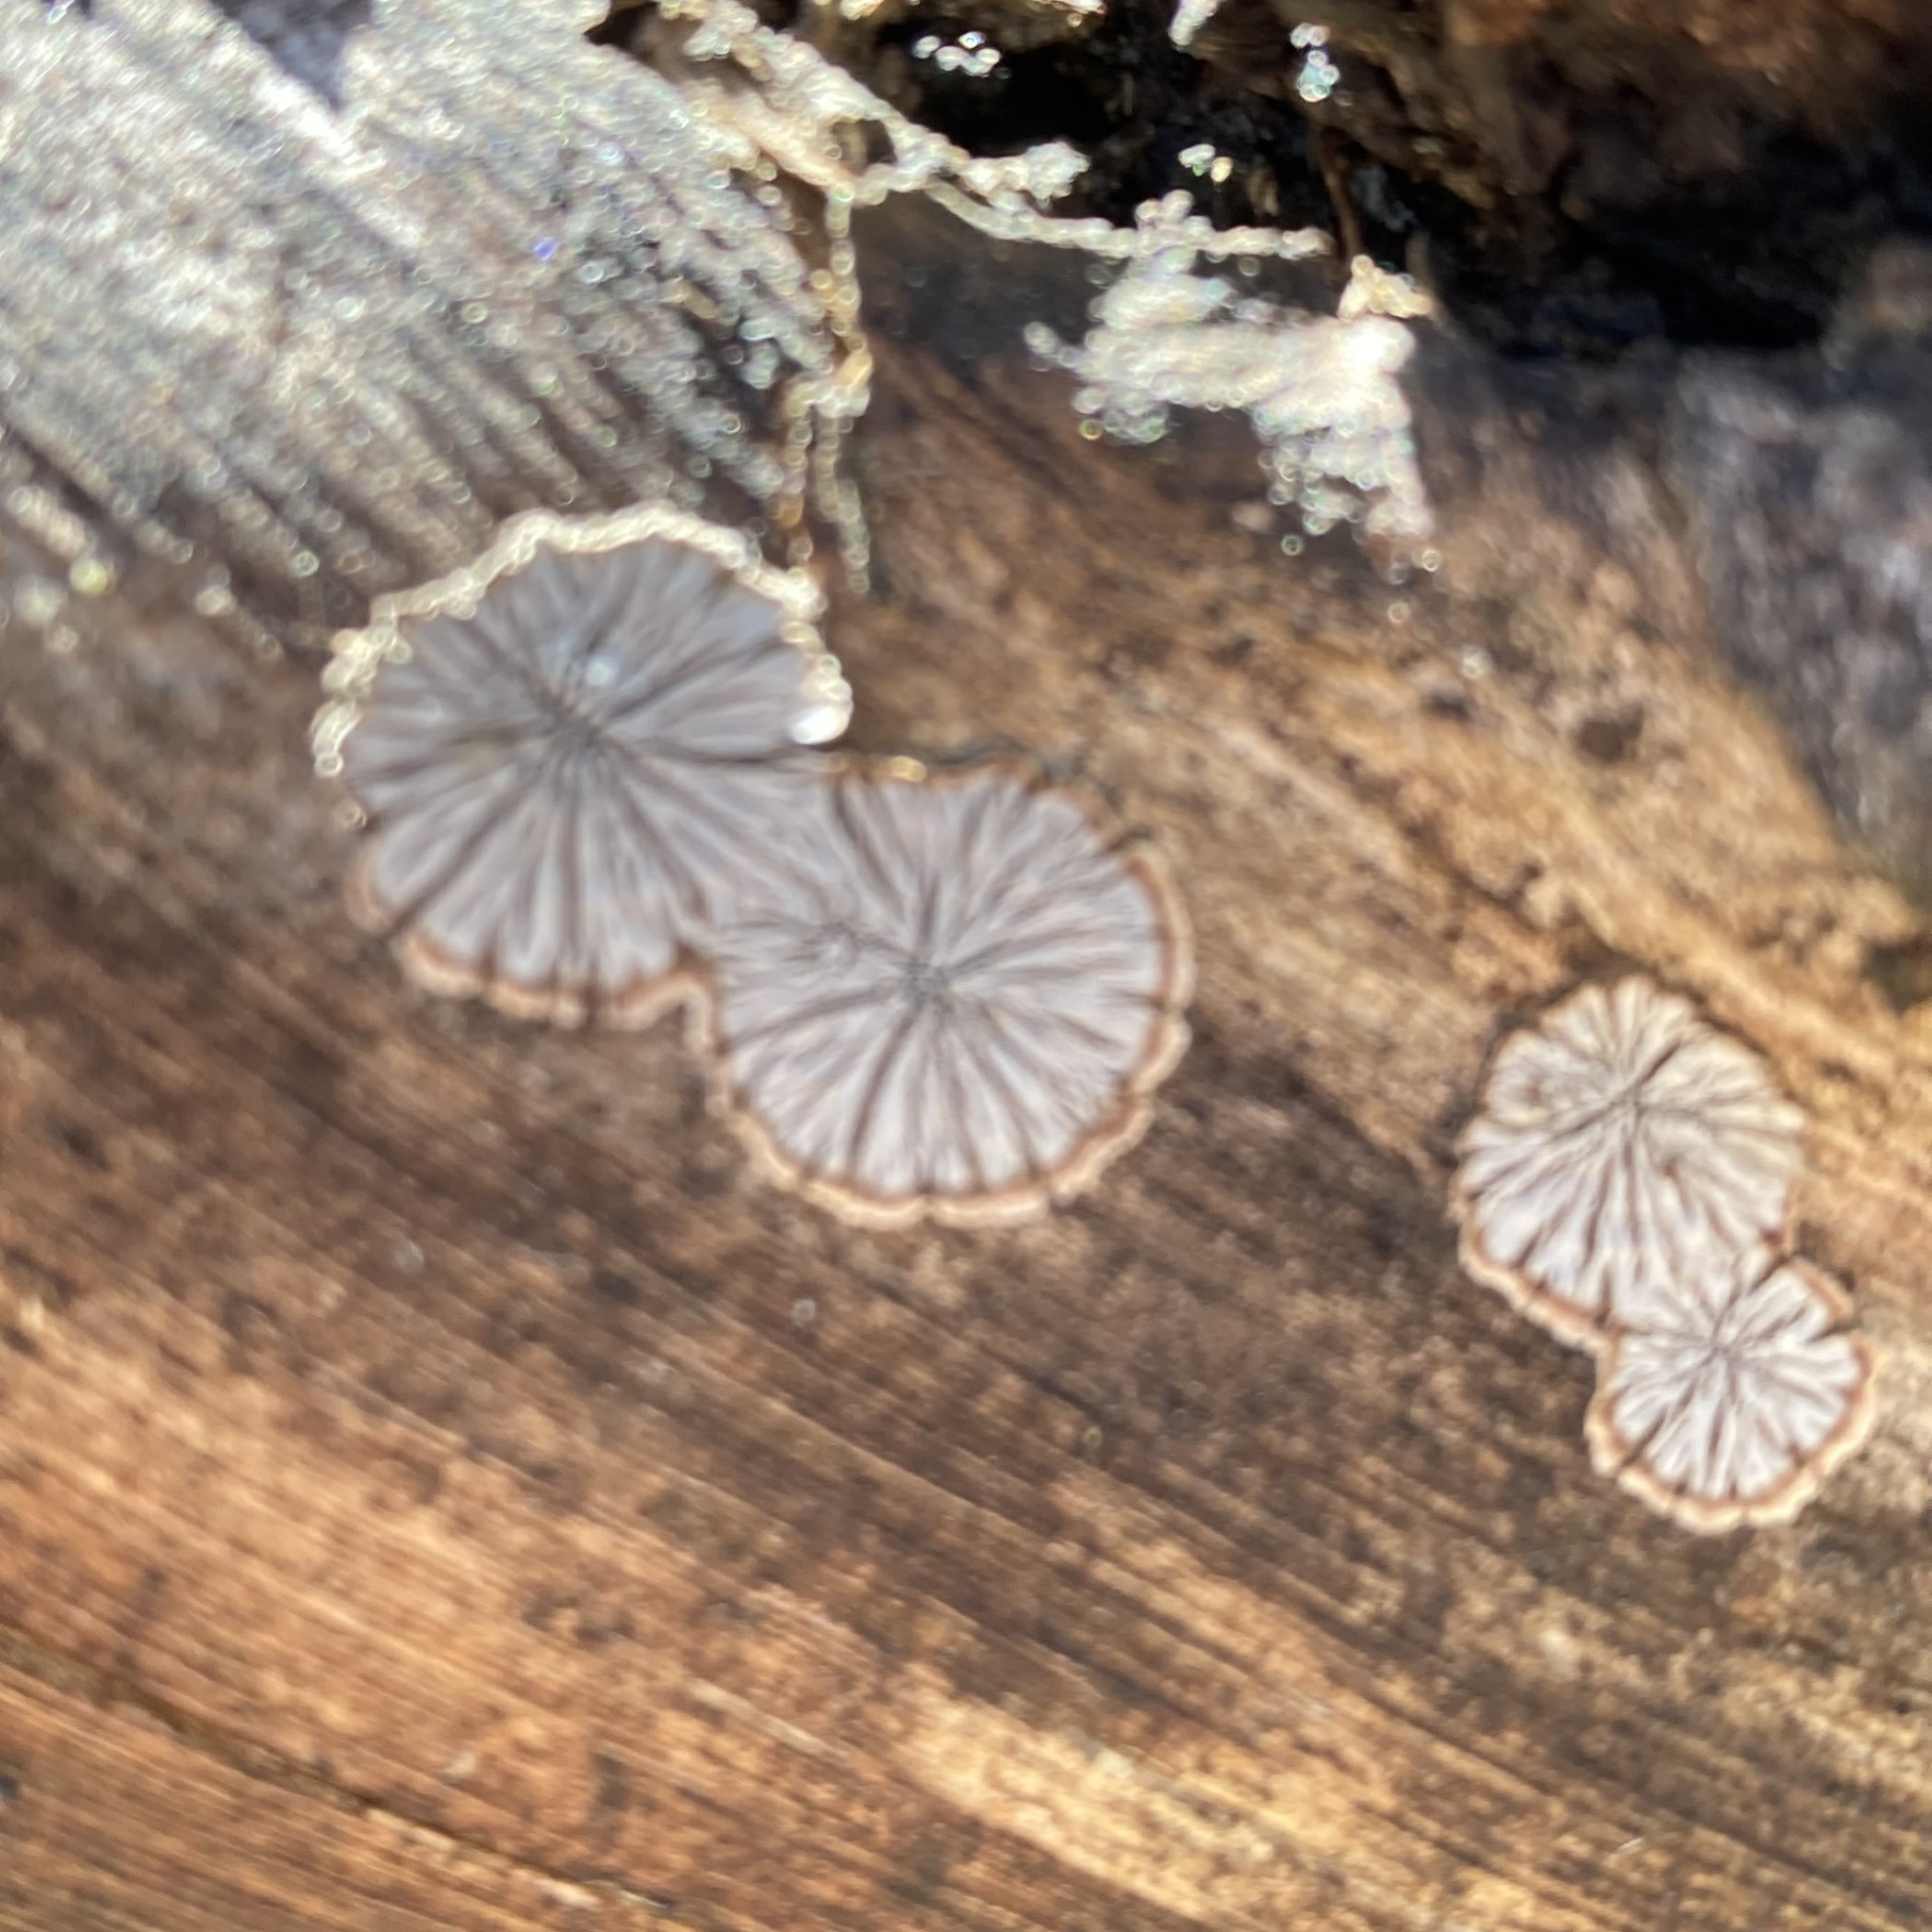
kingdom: Fungi
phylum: Basidiomycota
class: Agaricomycetes
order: Agaricales
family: Schizophyllaceae
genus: Schizophyllum
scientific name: Schizophyllum commune
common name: Common porecrust
